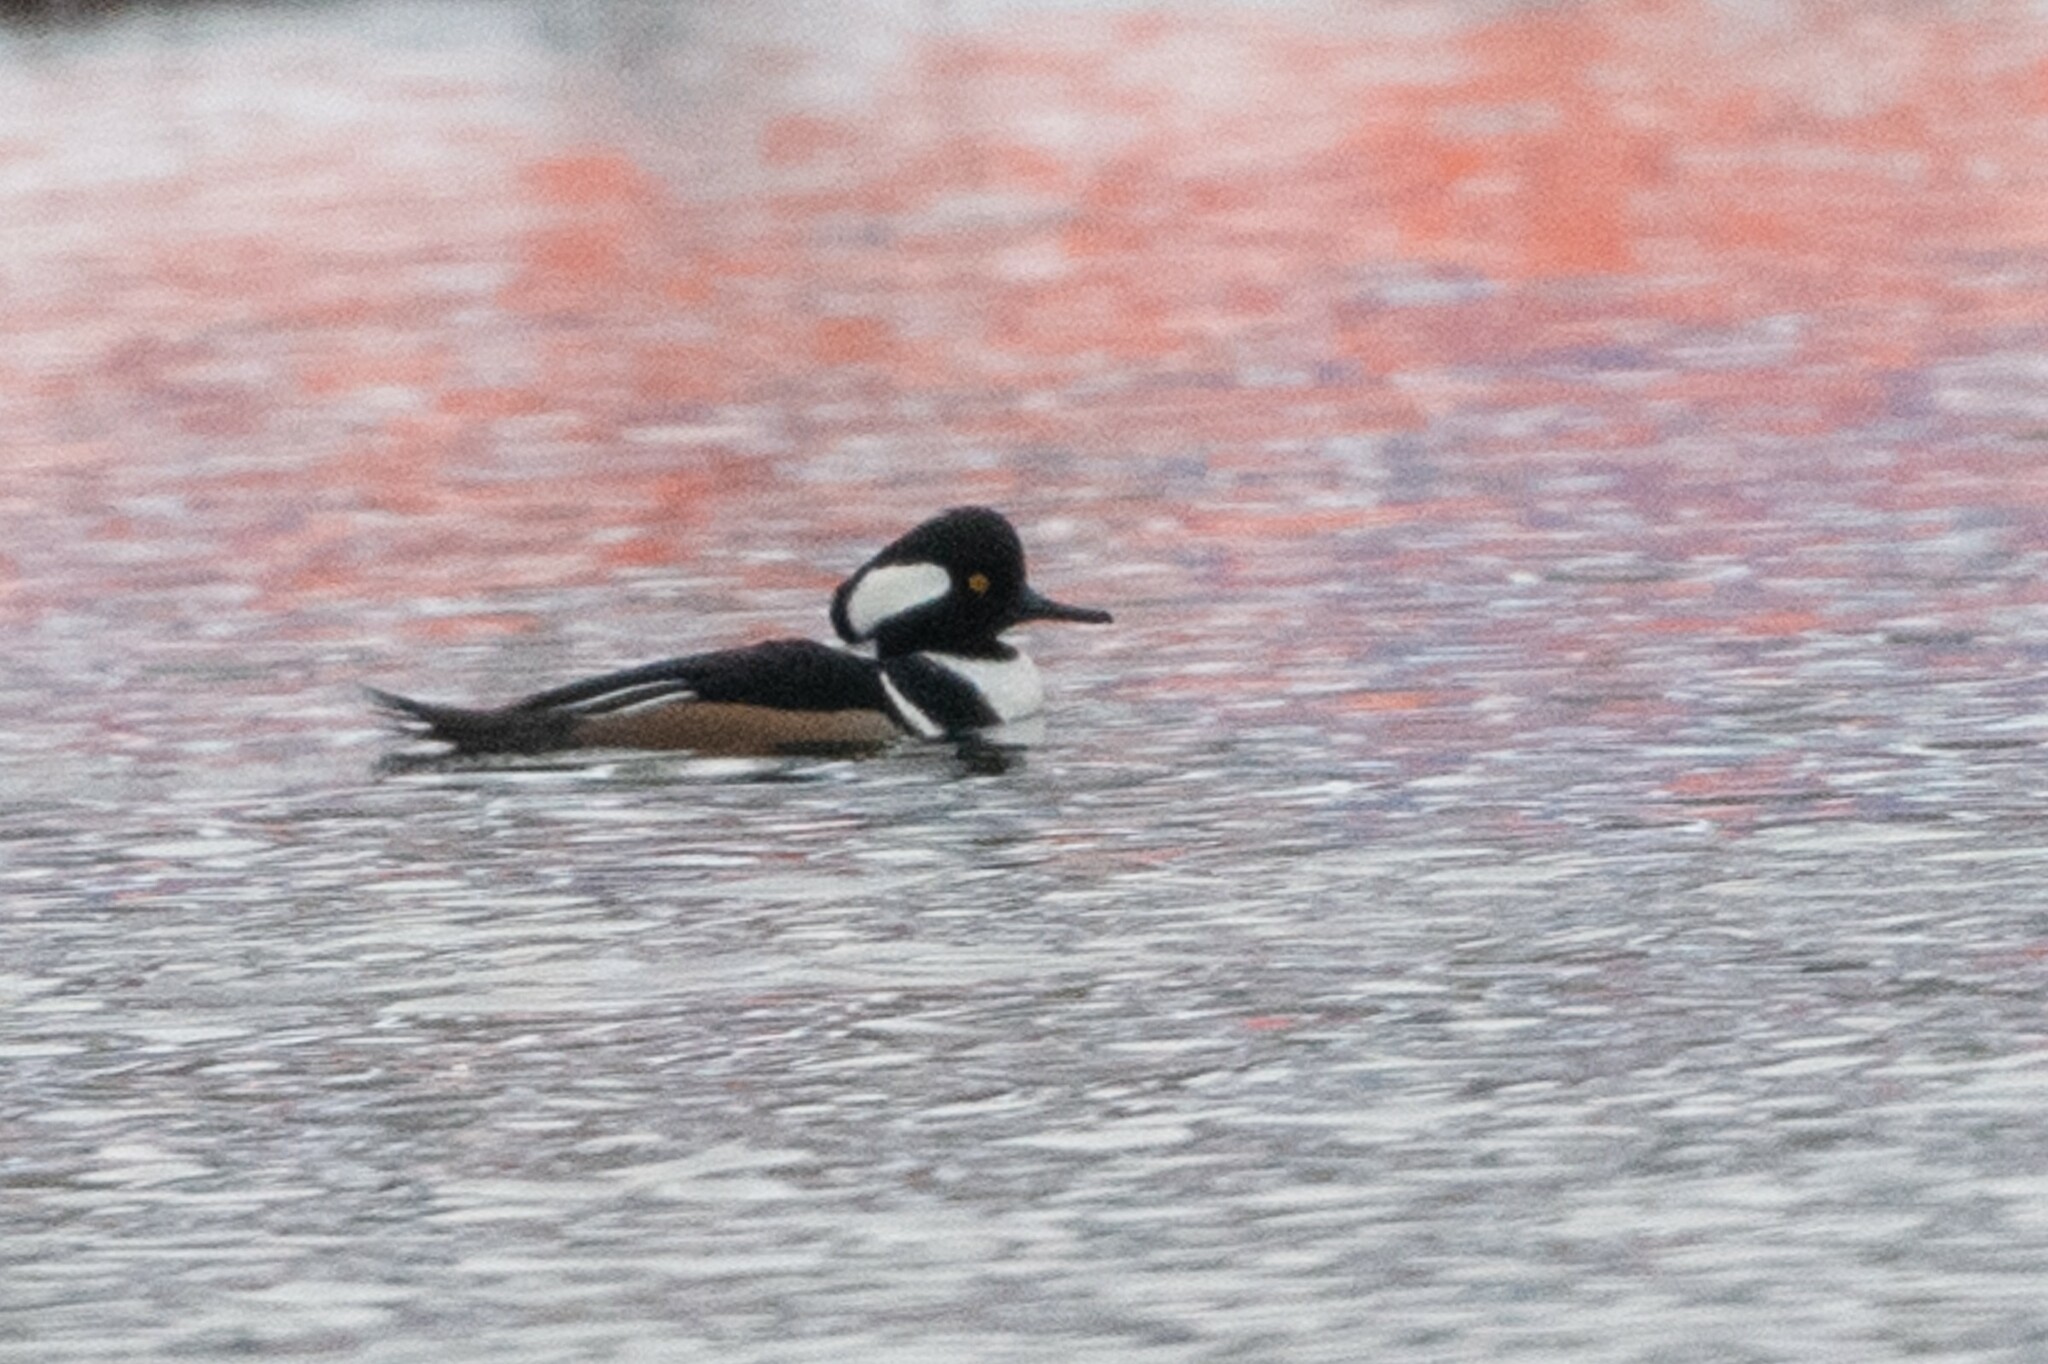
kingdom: Animalia
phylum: Chordata
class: Aves
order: Anseriformes
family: Anatidae
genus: Lophodytes
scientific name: Lophodytes cucullatus
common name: Hooded merganser
